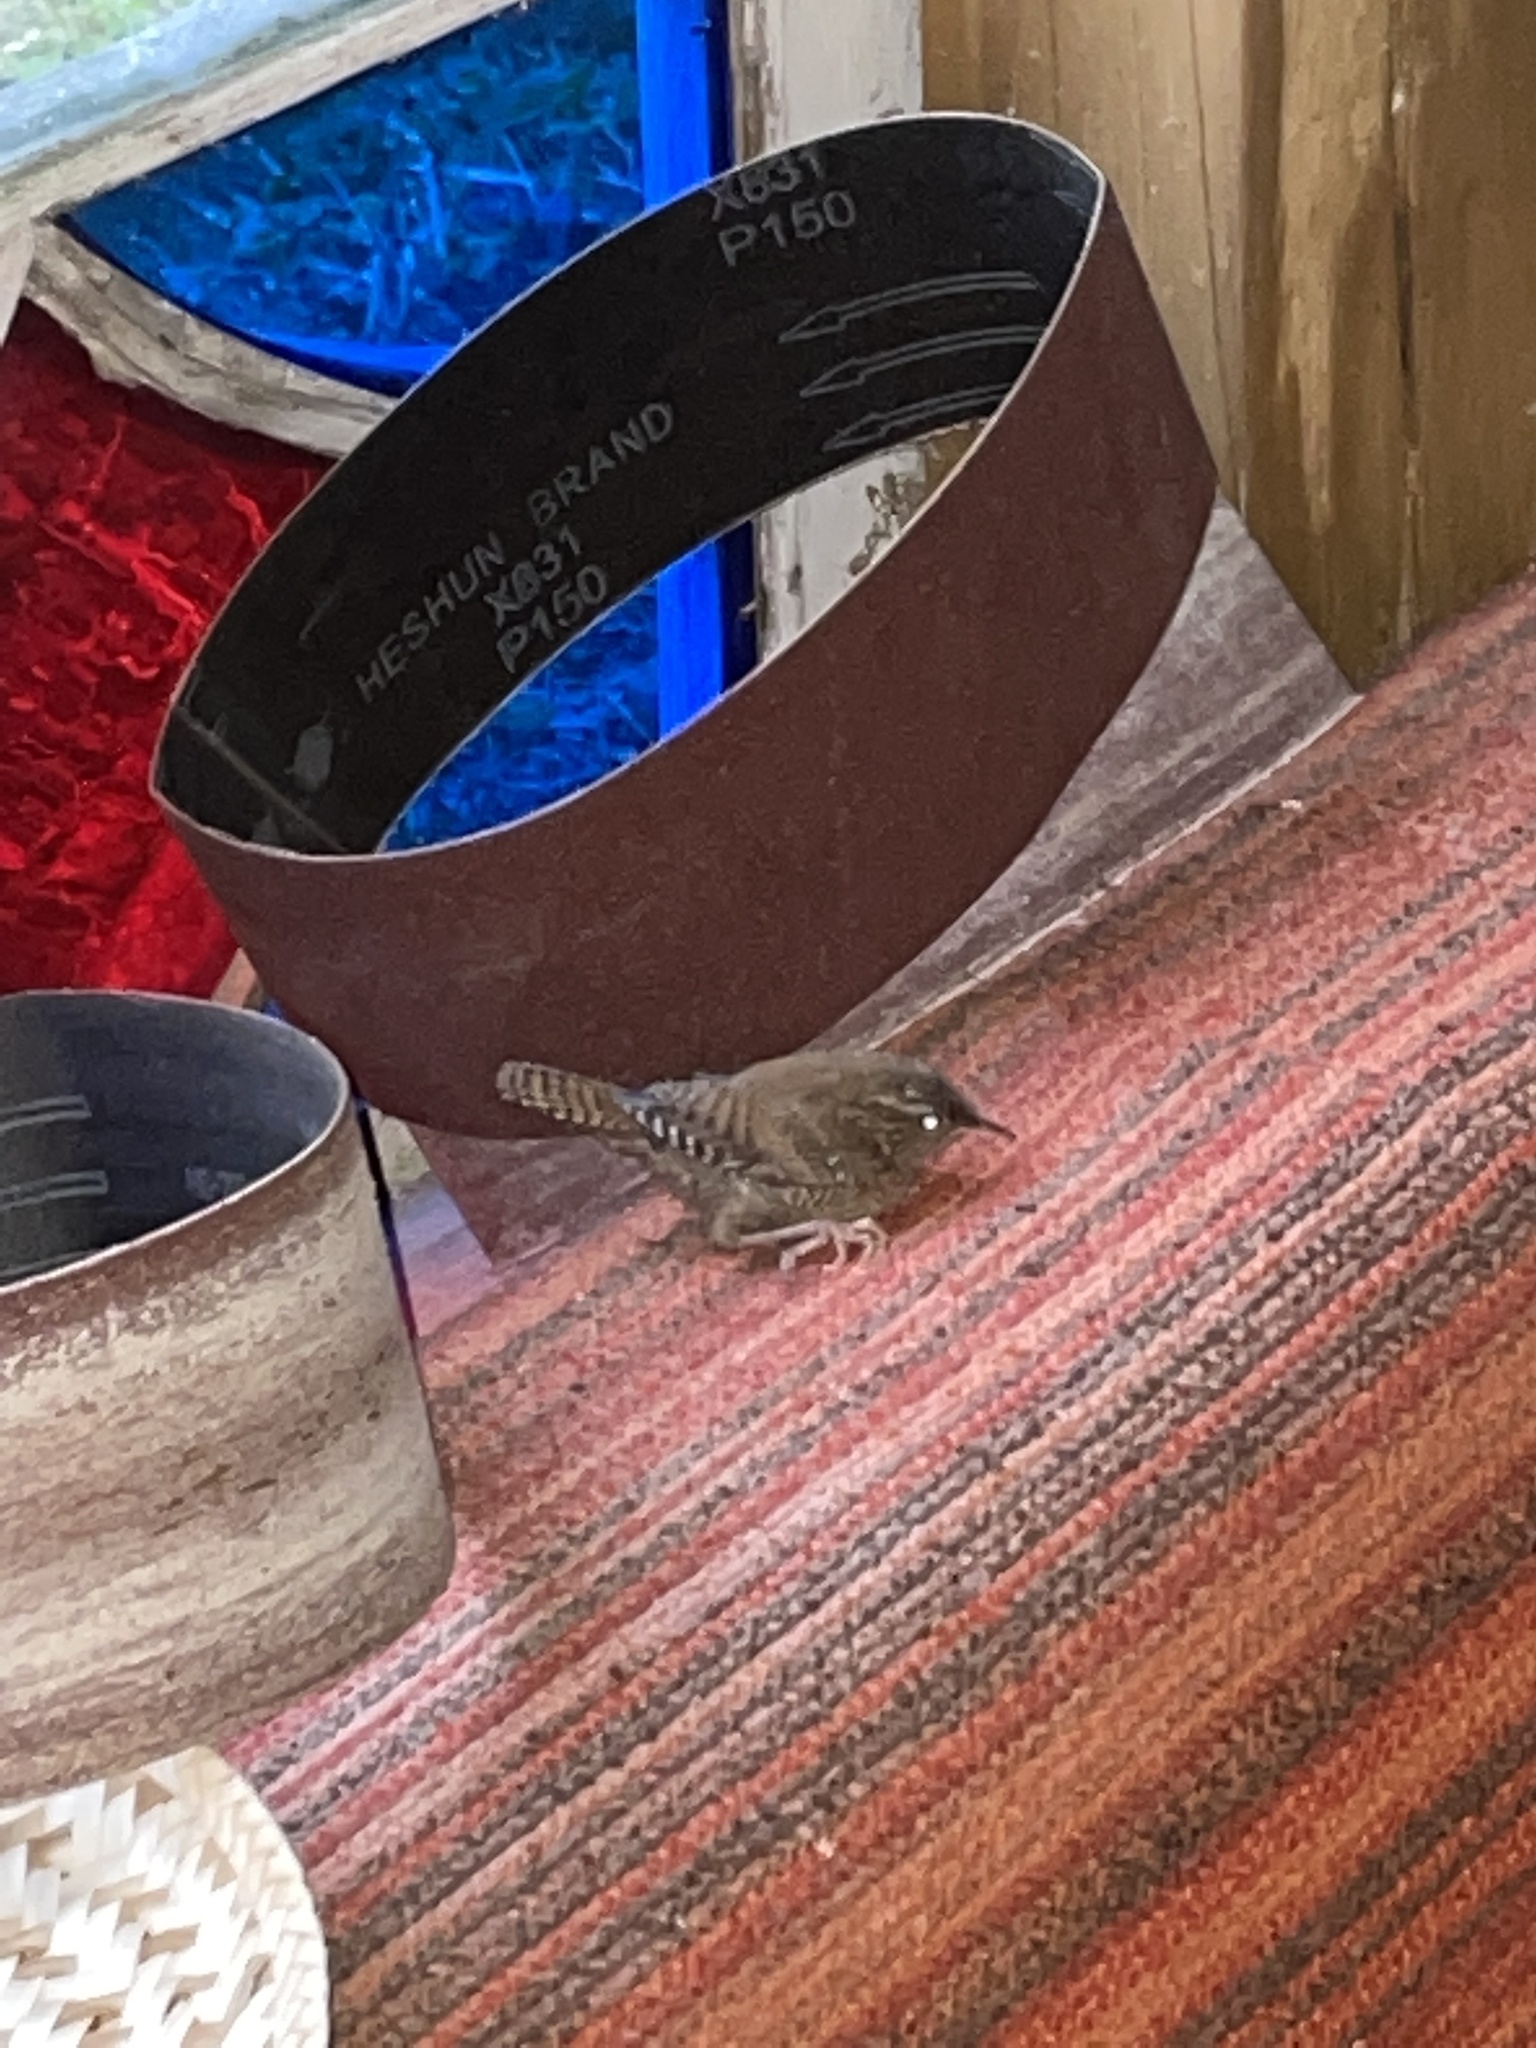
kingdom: Animalia
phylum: Chordata
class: Aves
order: Passeriformes
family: Troglodytidae
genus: Troglodytes
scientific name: Troglodytes troglodytes
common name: Eurasian wren
